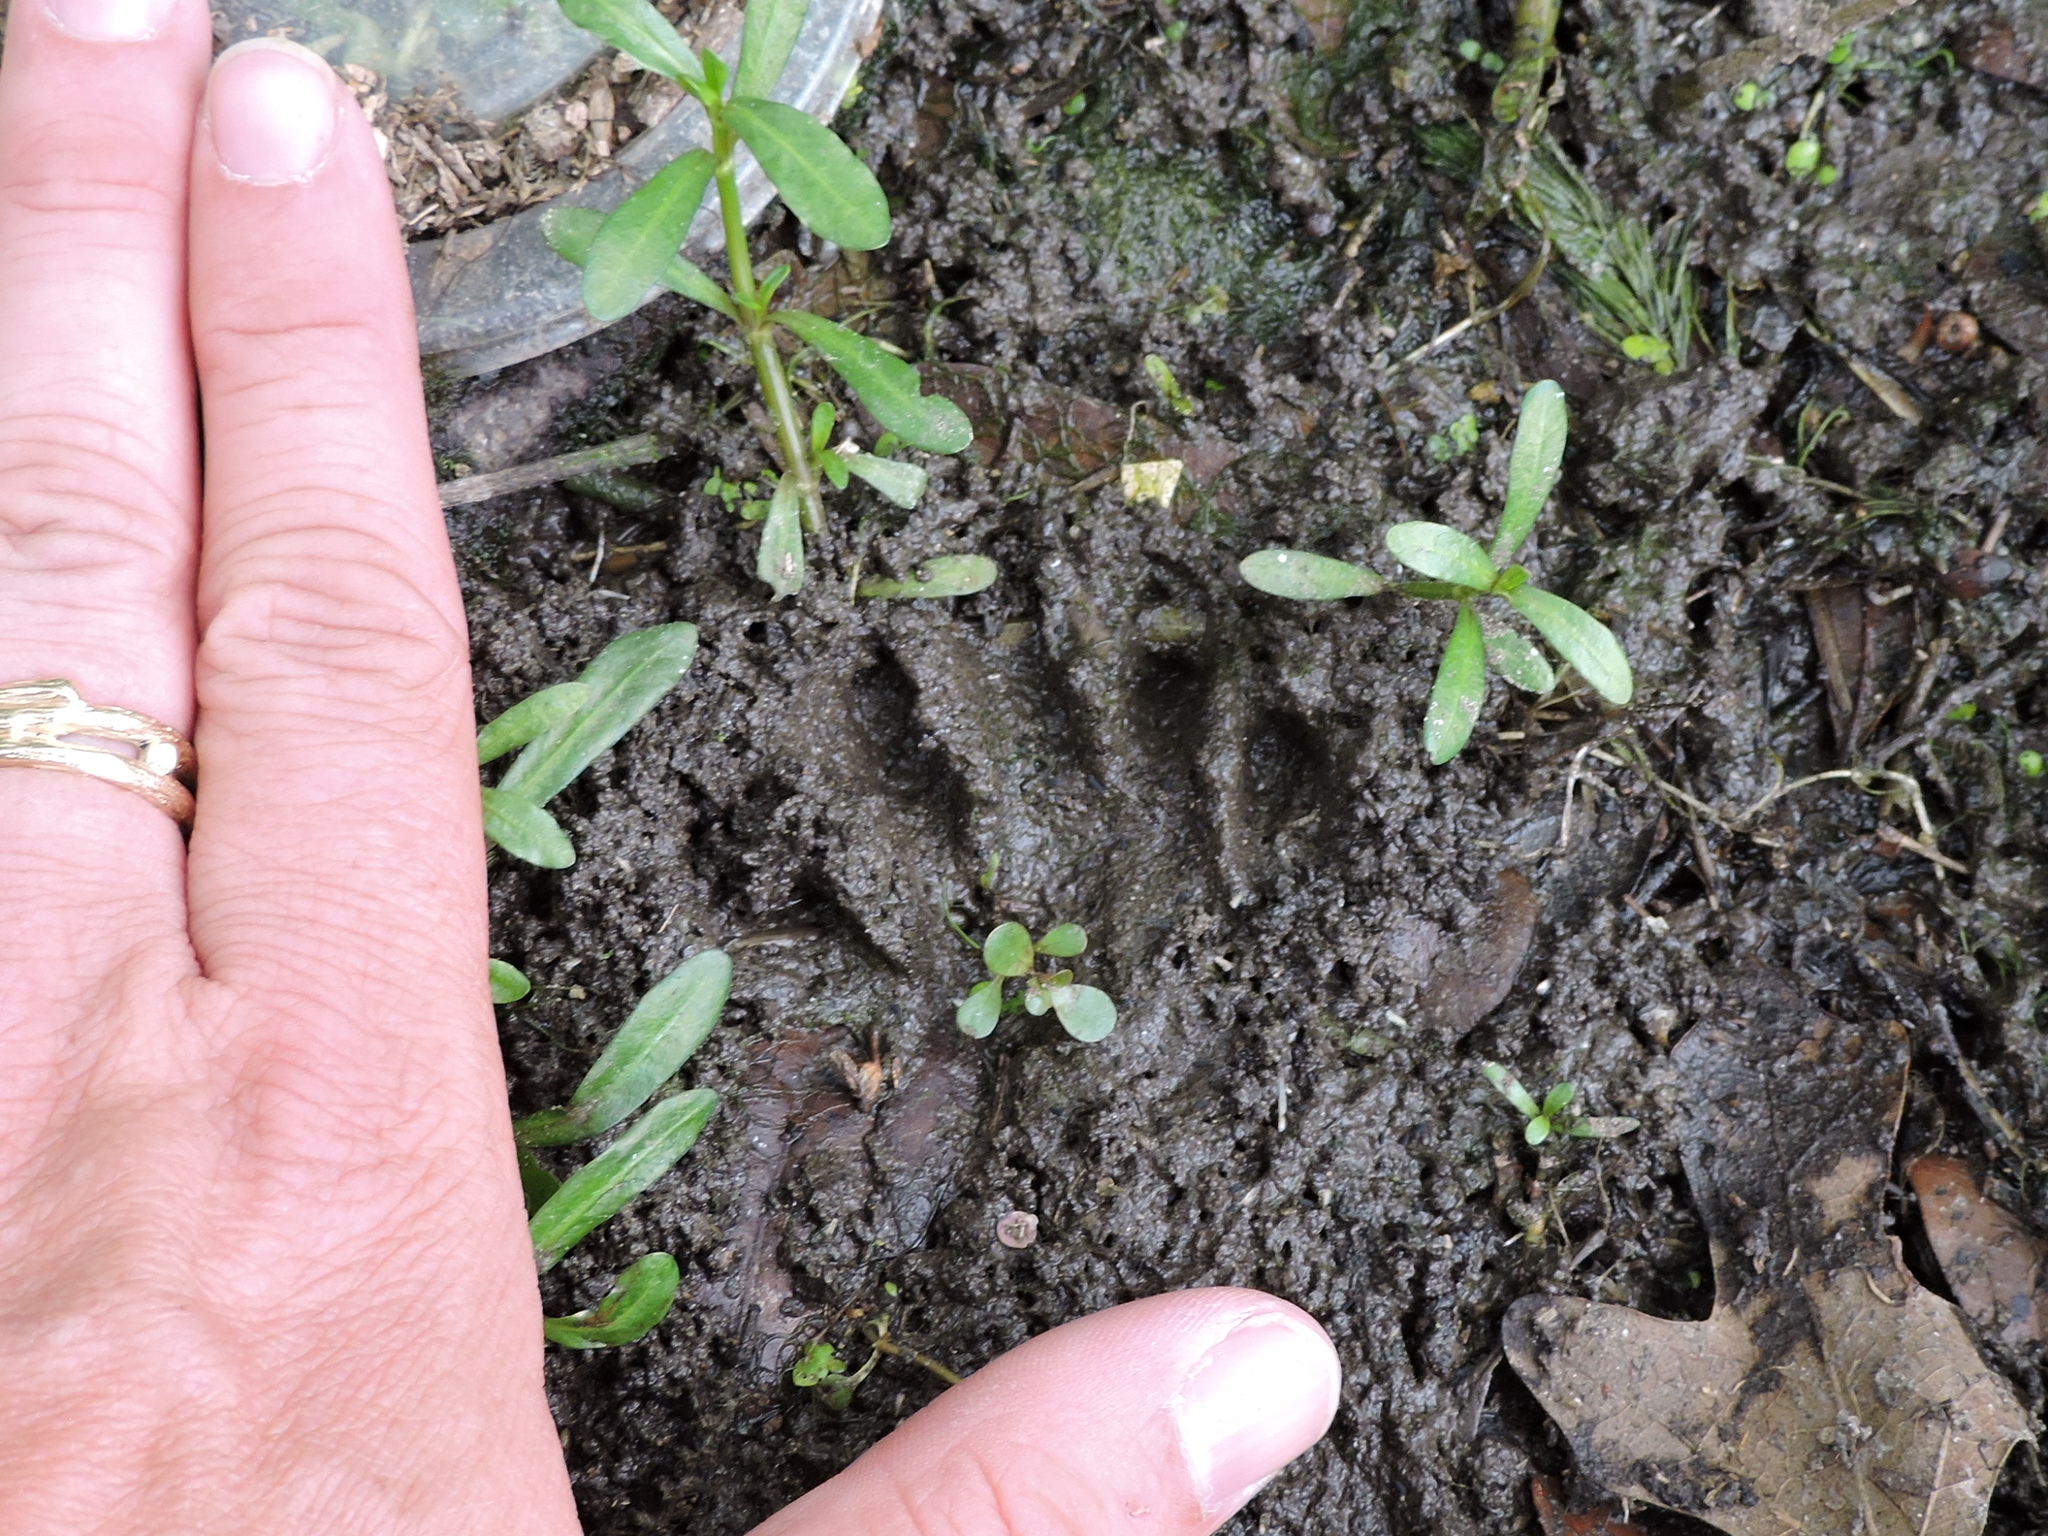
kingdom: Animalia
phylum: Chordata
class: Mammalia
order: Carnivora
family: Procyonidae
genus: Procyon
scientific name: Procyon lotor
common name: Raccoon
